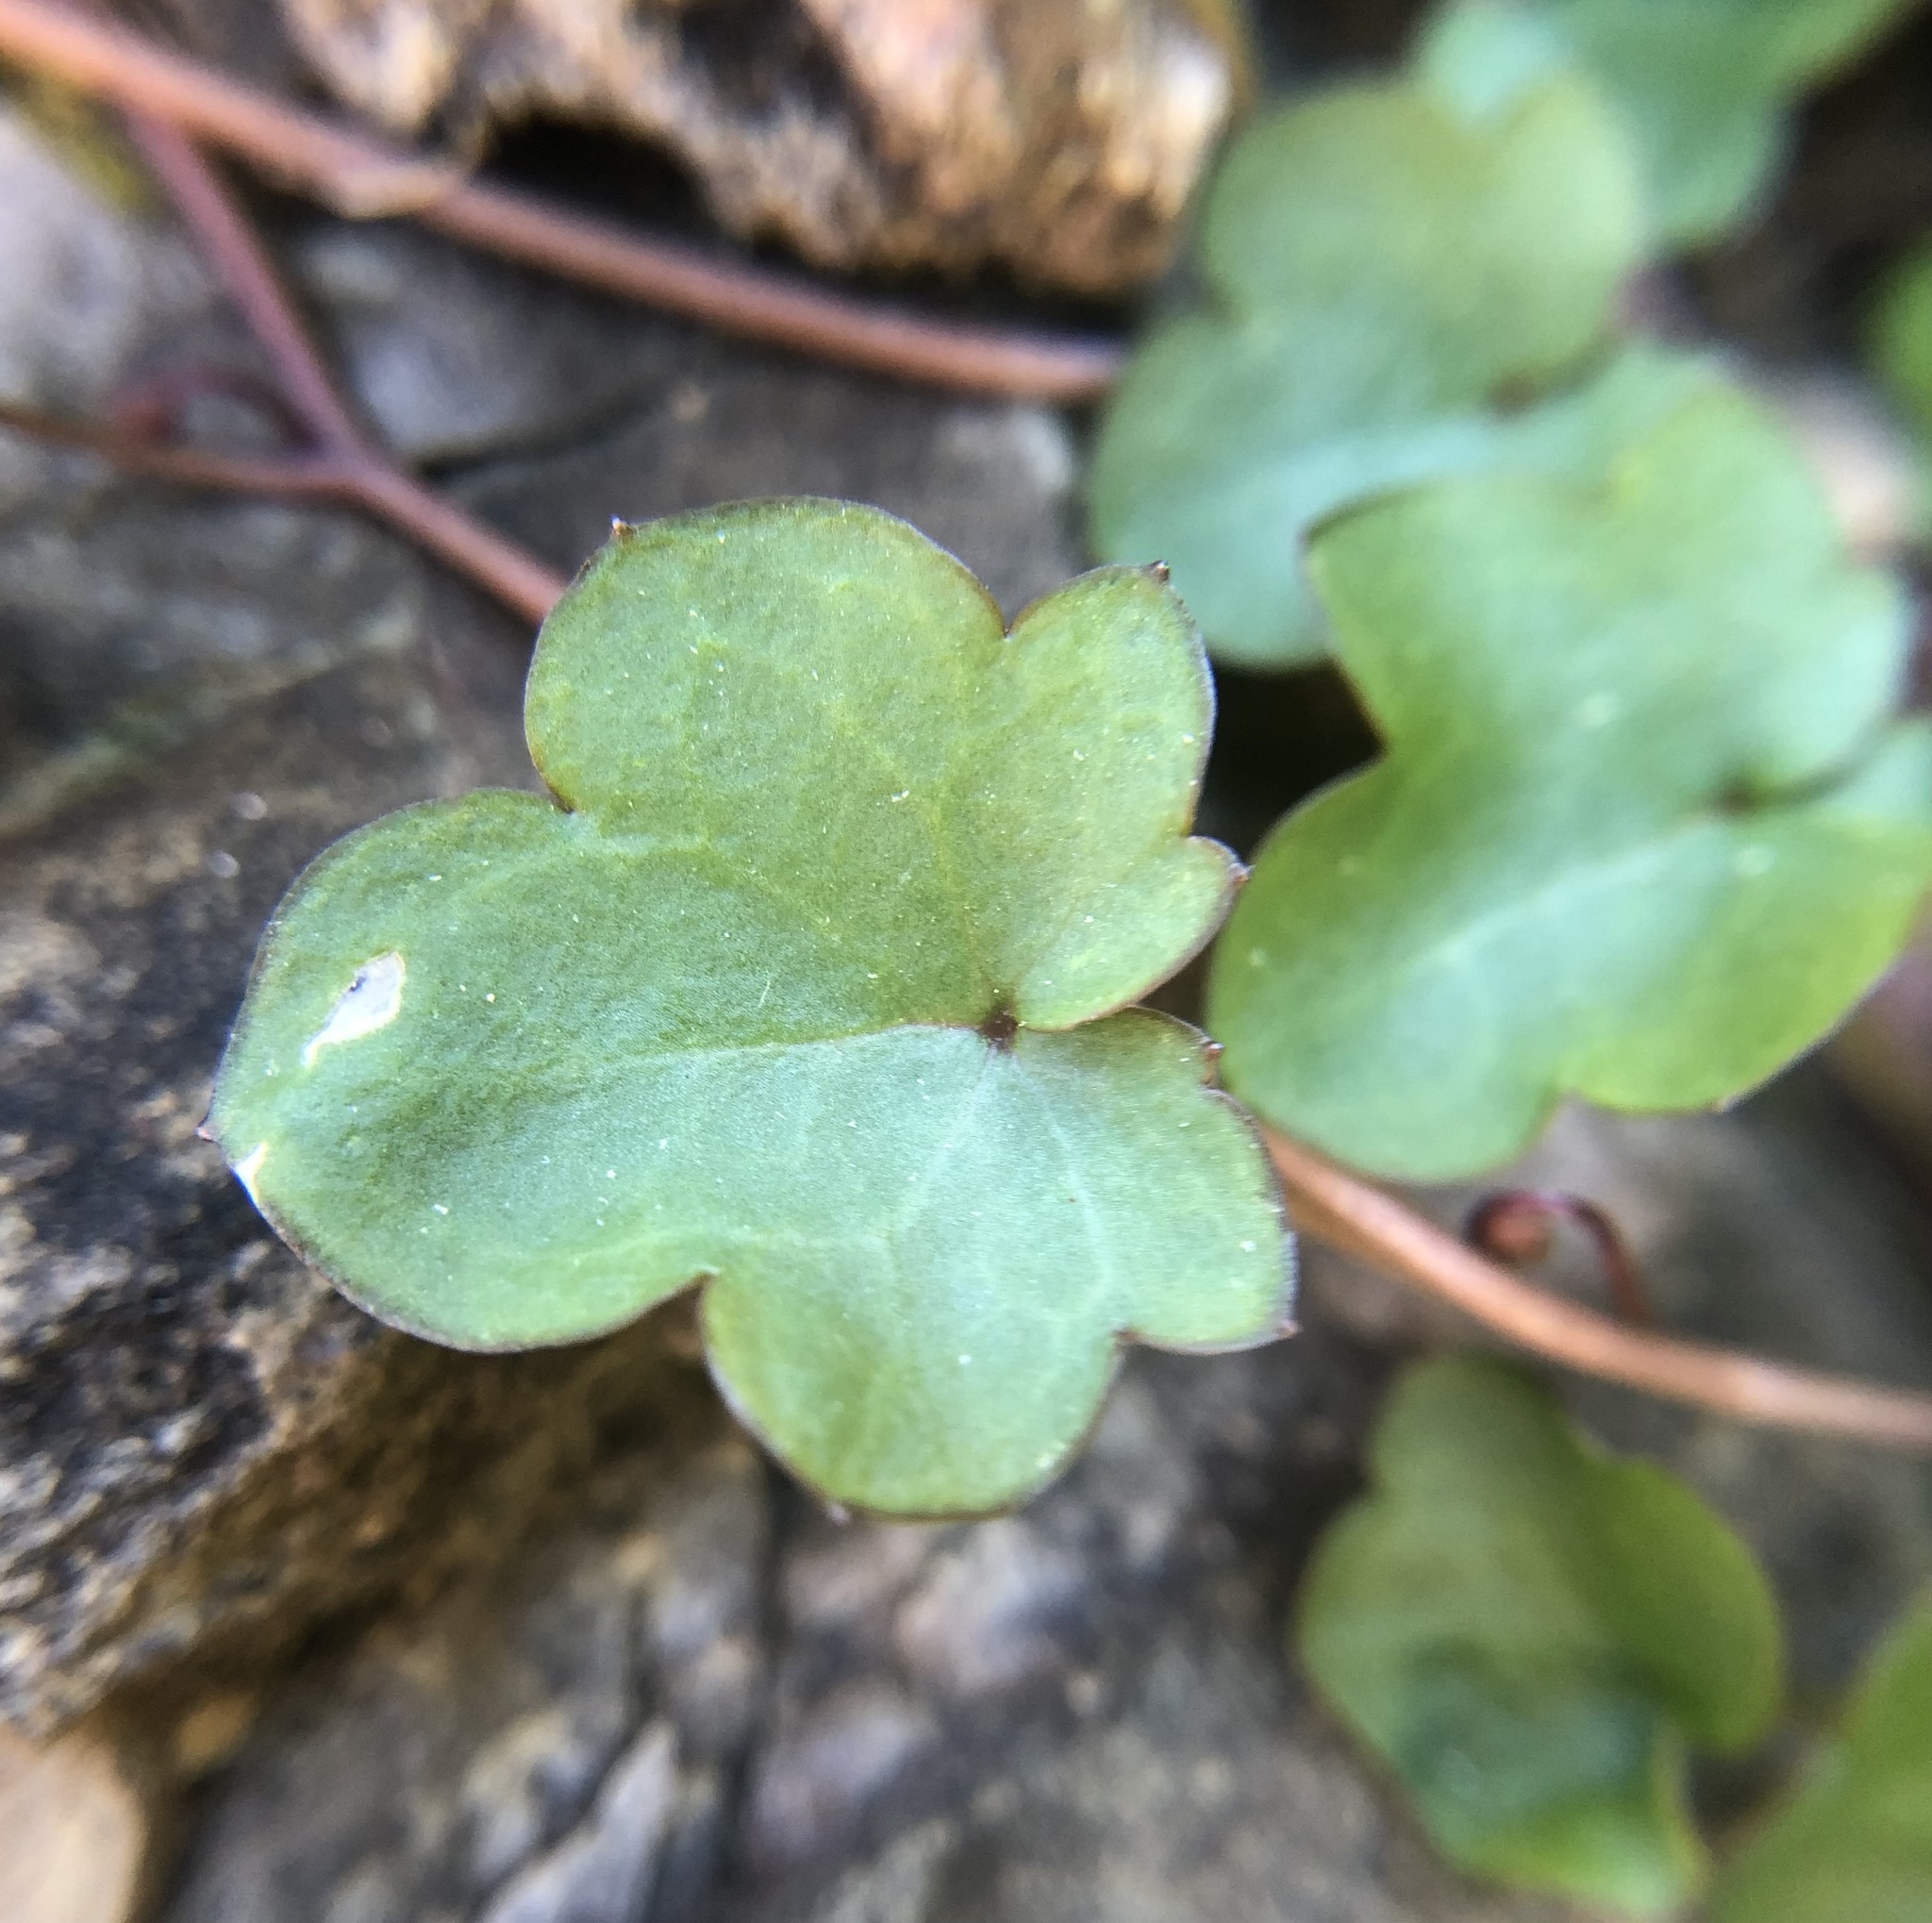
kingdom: Plantae
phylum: Tracheophyta
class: Magnoliopsida
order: Lamiales
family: Plantaginaceae
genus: Cymbalaria
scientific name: Cymbalaria muralis
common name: Ivy-leaved toadflax
